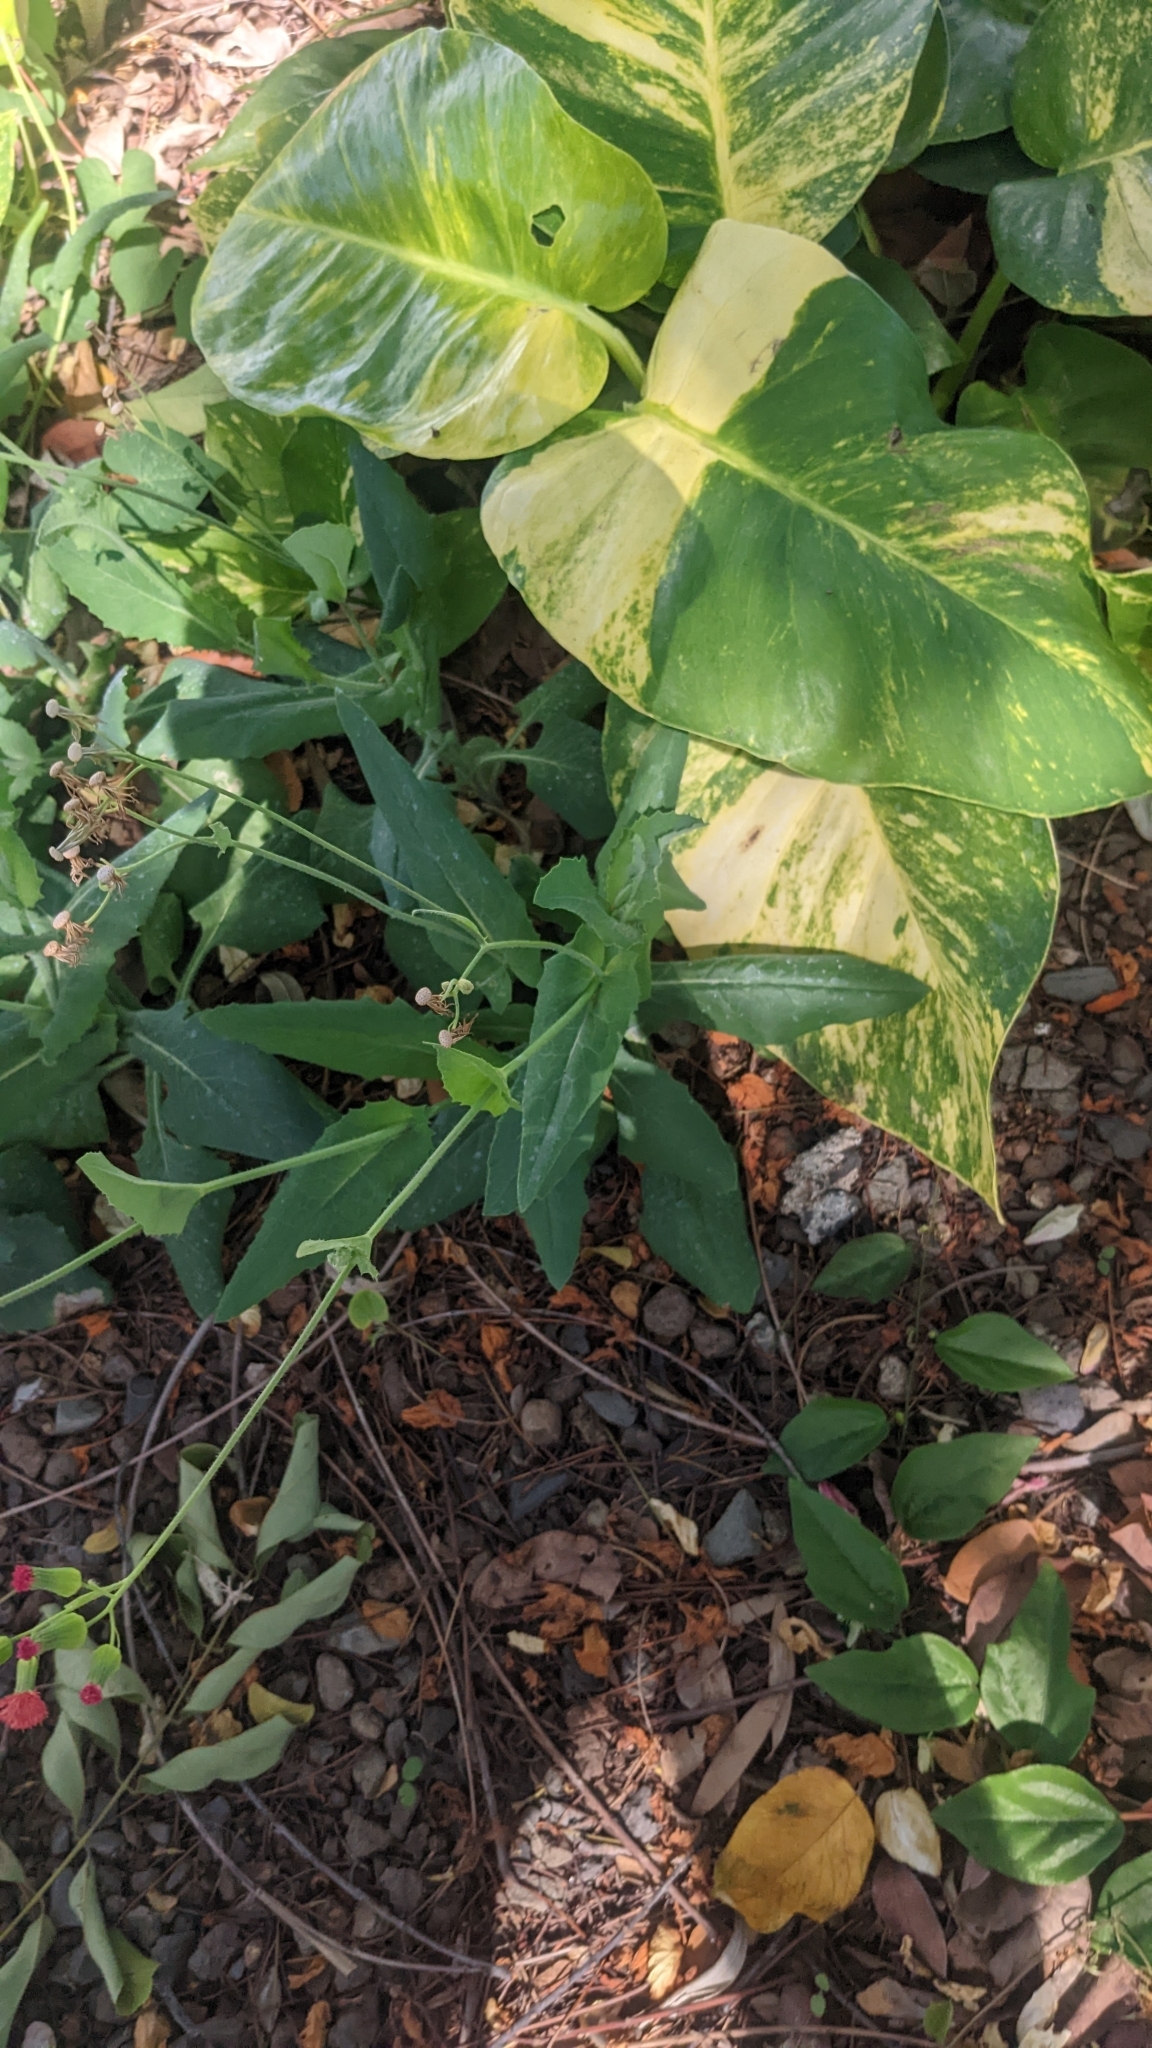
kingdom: Plantae
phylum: Tracheophyta
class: Magnoliopsida
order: Asterales
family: Asteraceae
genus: Emilia
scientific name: Emilia fosbergii
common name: Florida tasselflower
